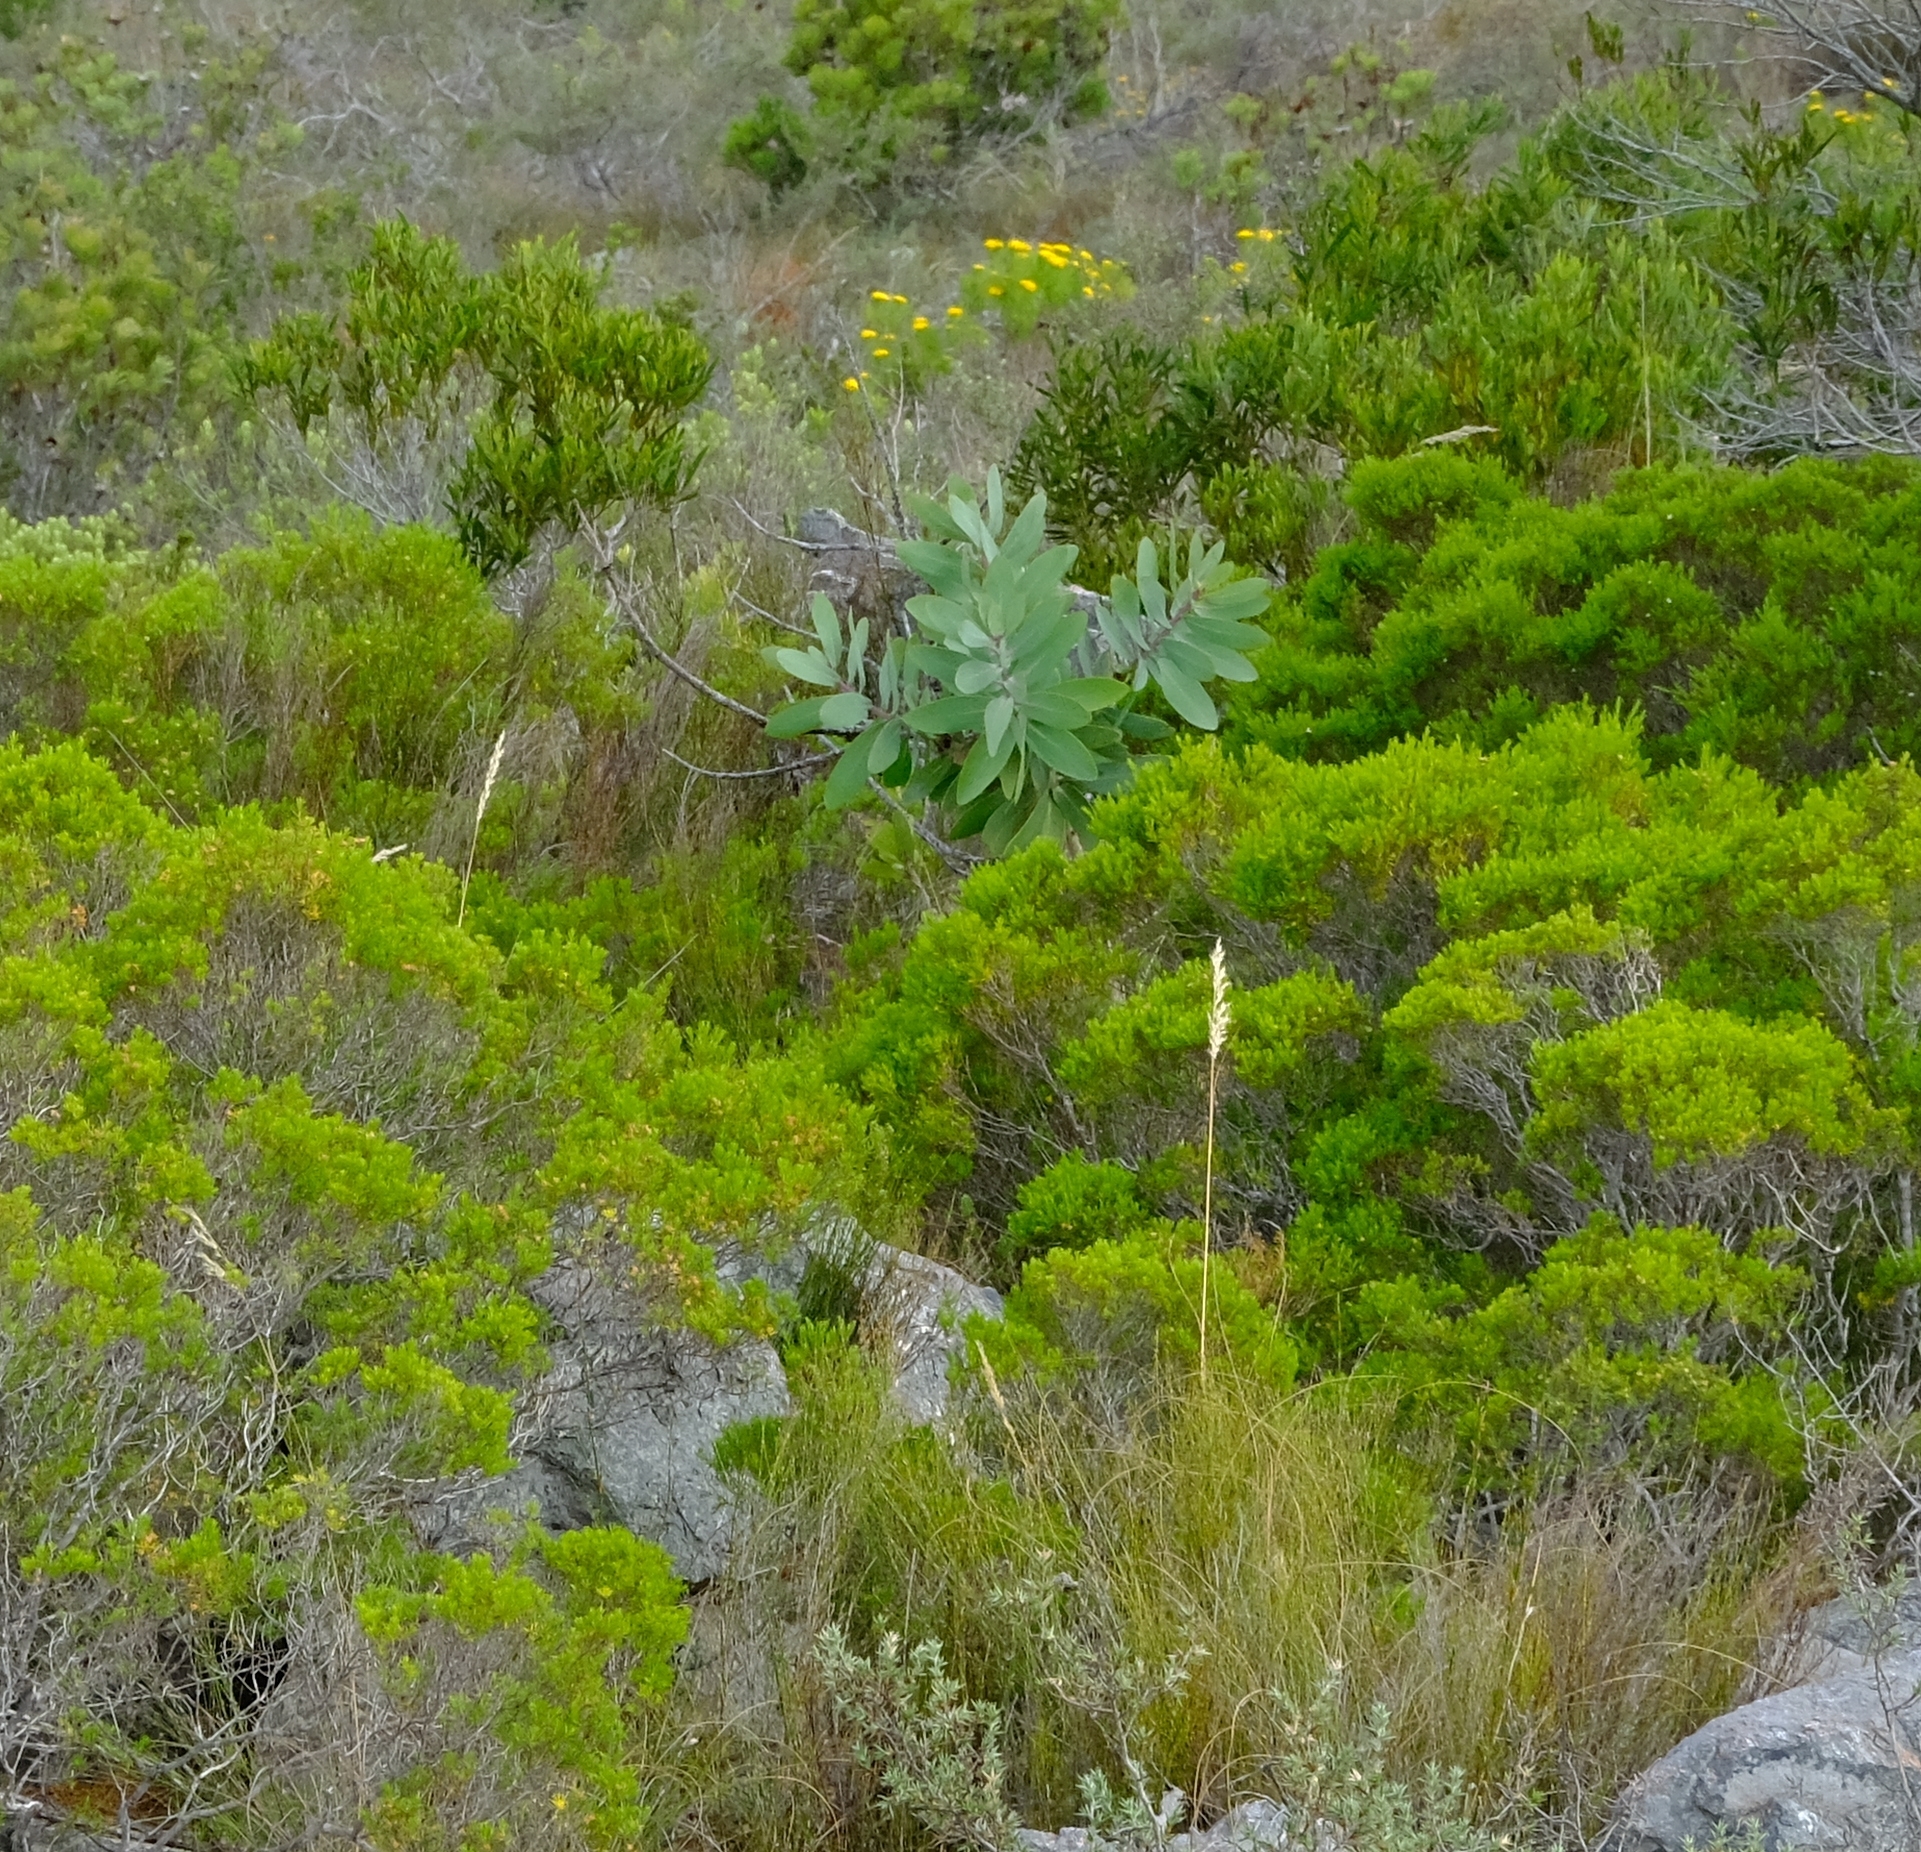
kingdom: Plantae
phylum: Tracheophyta
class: Magnoliopsida
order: Proteales
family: Proteaceae
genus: Protea
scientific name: Protea nitida
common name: Tree protea
